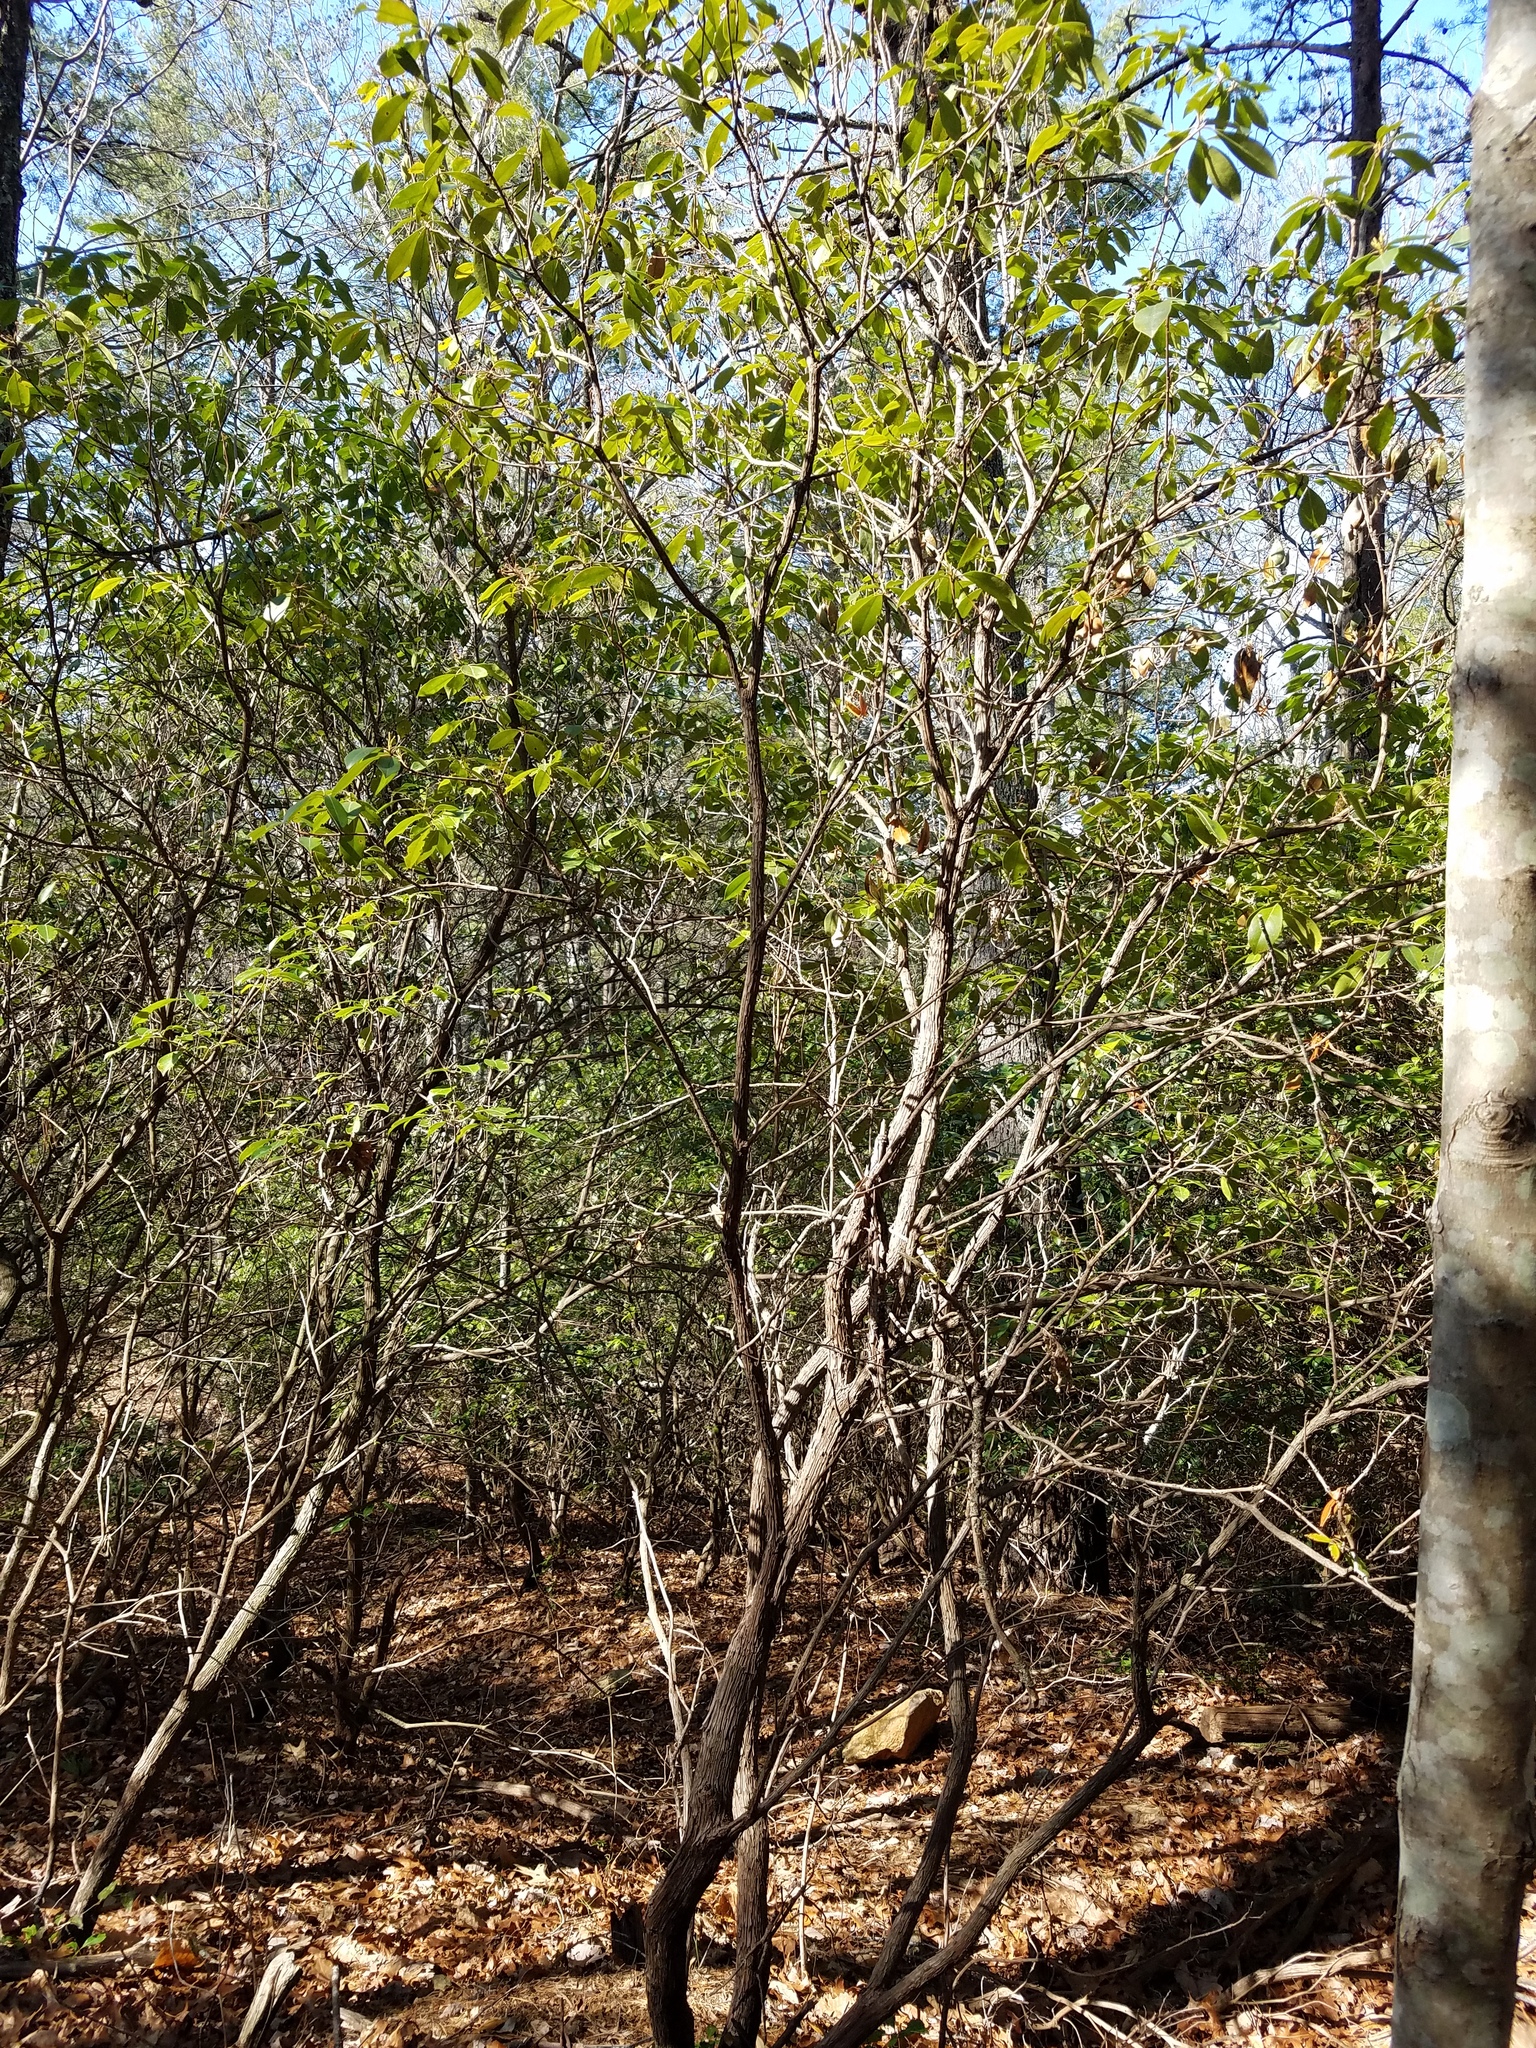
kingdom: Plantae
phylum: Tracheophyta
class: Magnoliopsida
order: Ericales
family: Ericaceae
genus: Kalmia
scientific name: Kalmia latifolia
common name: Mountain-laurel
